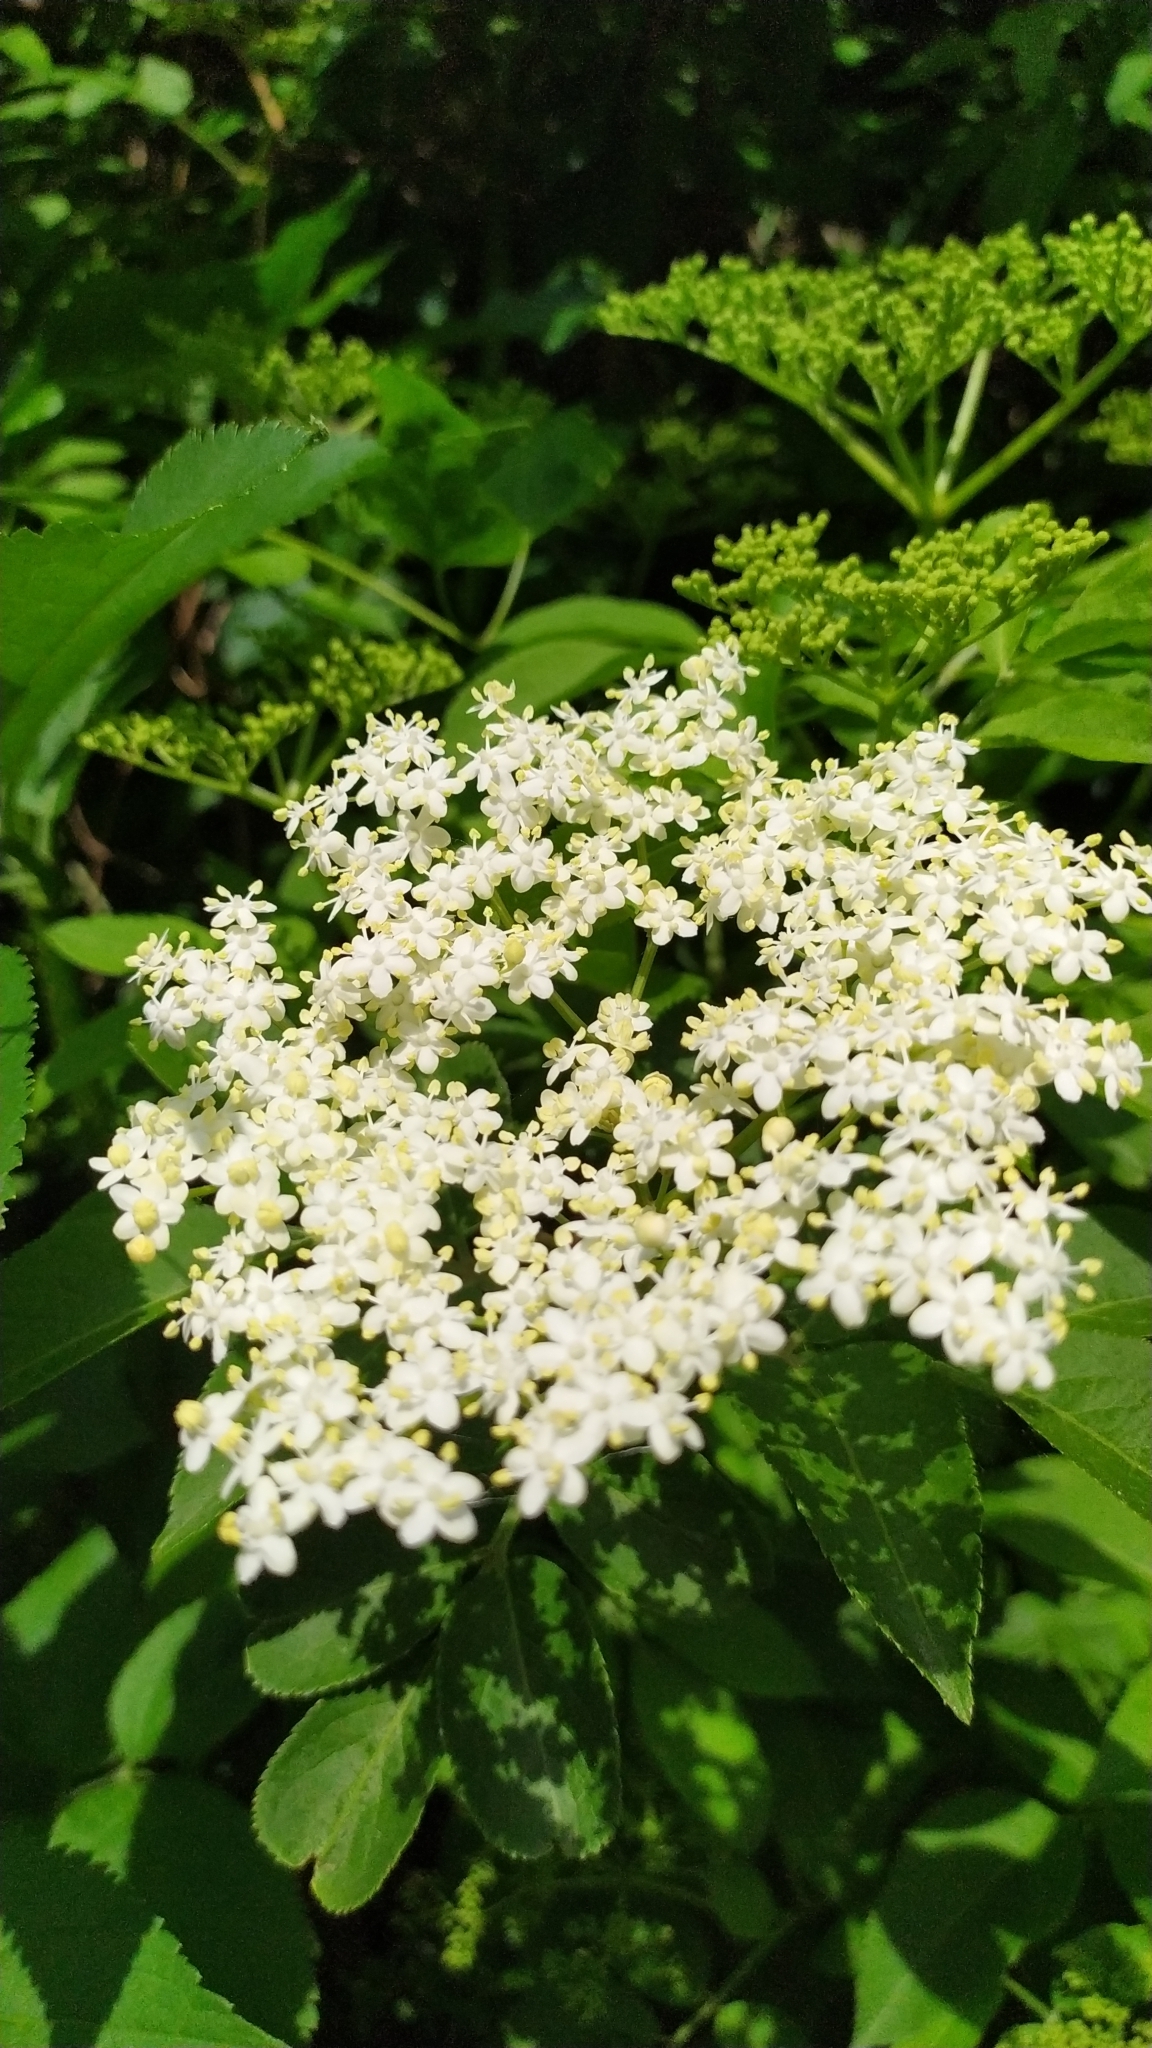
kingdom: Plantae
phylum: Tracheophyta
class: Magnoliopsida
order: Dipsacales
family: Viburnaceae
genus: Sambucus
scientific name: Sambucus nigra
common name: Elder
